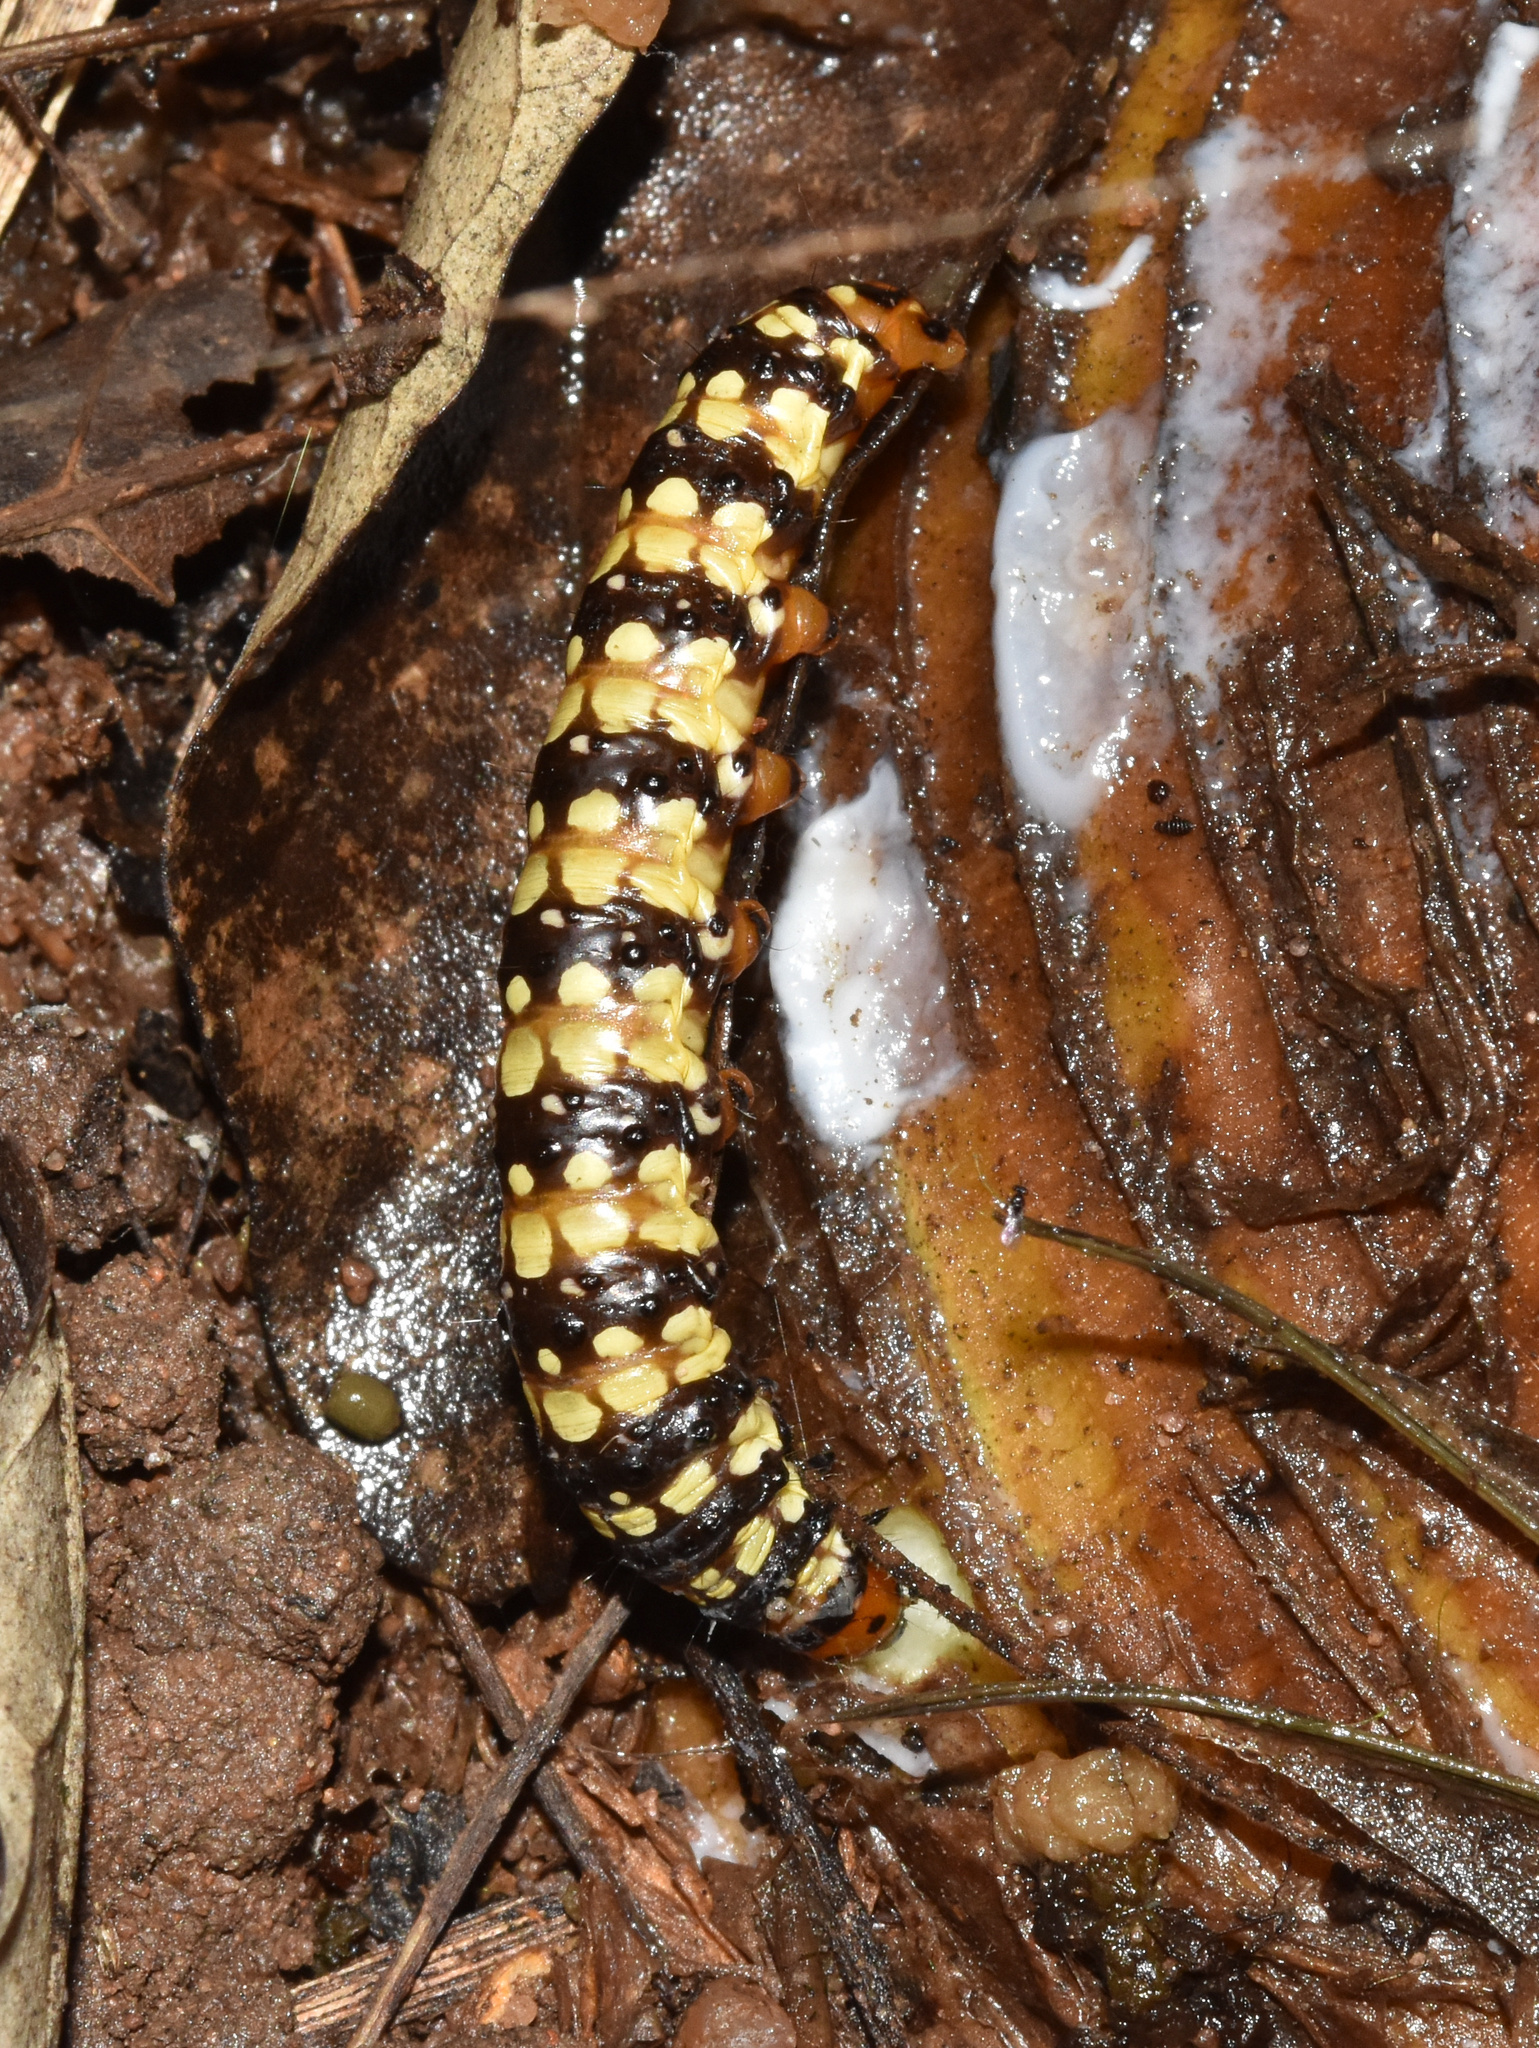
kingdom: Animalia
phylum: Arthropoda
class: Insecta
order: Lepidoptera
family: Noctuidae
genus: Brithys
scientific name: Brithys crini
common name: Kew arches
